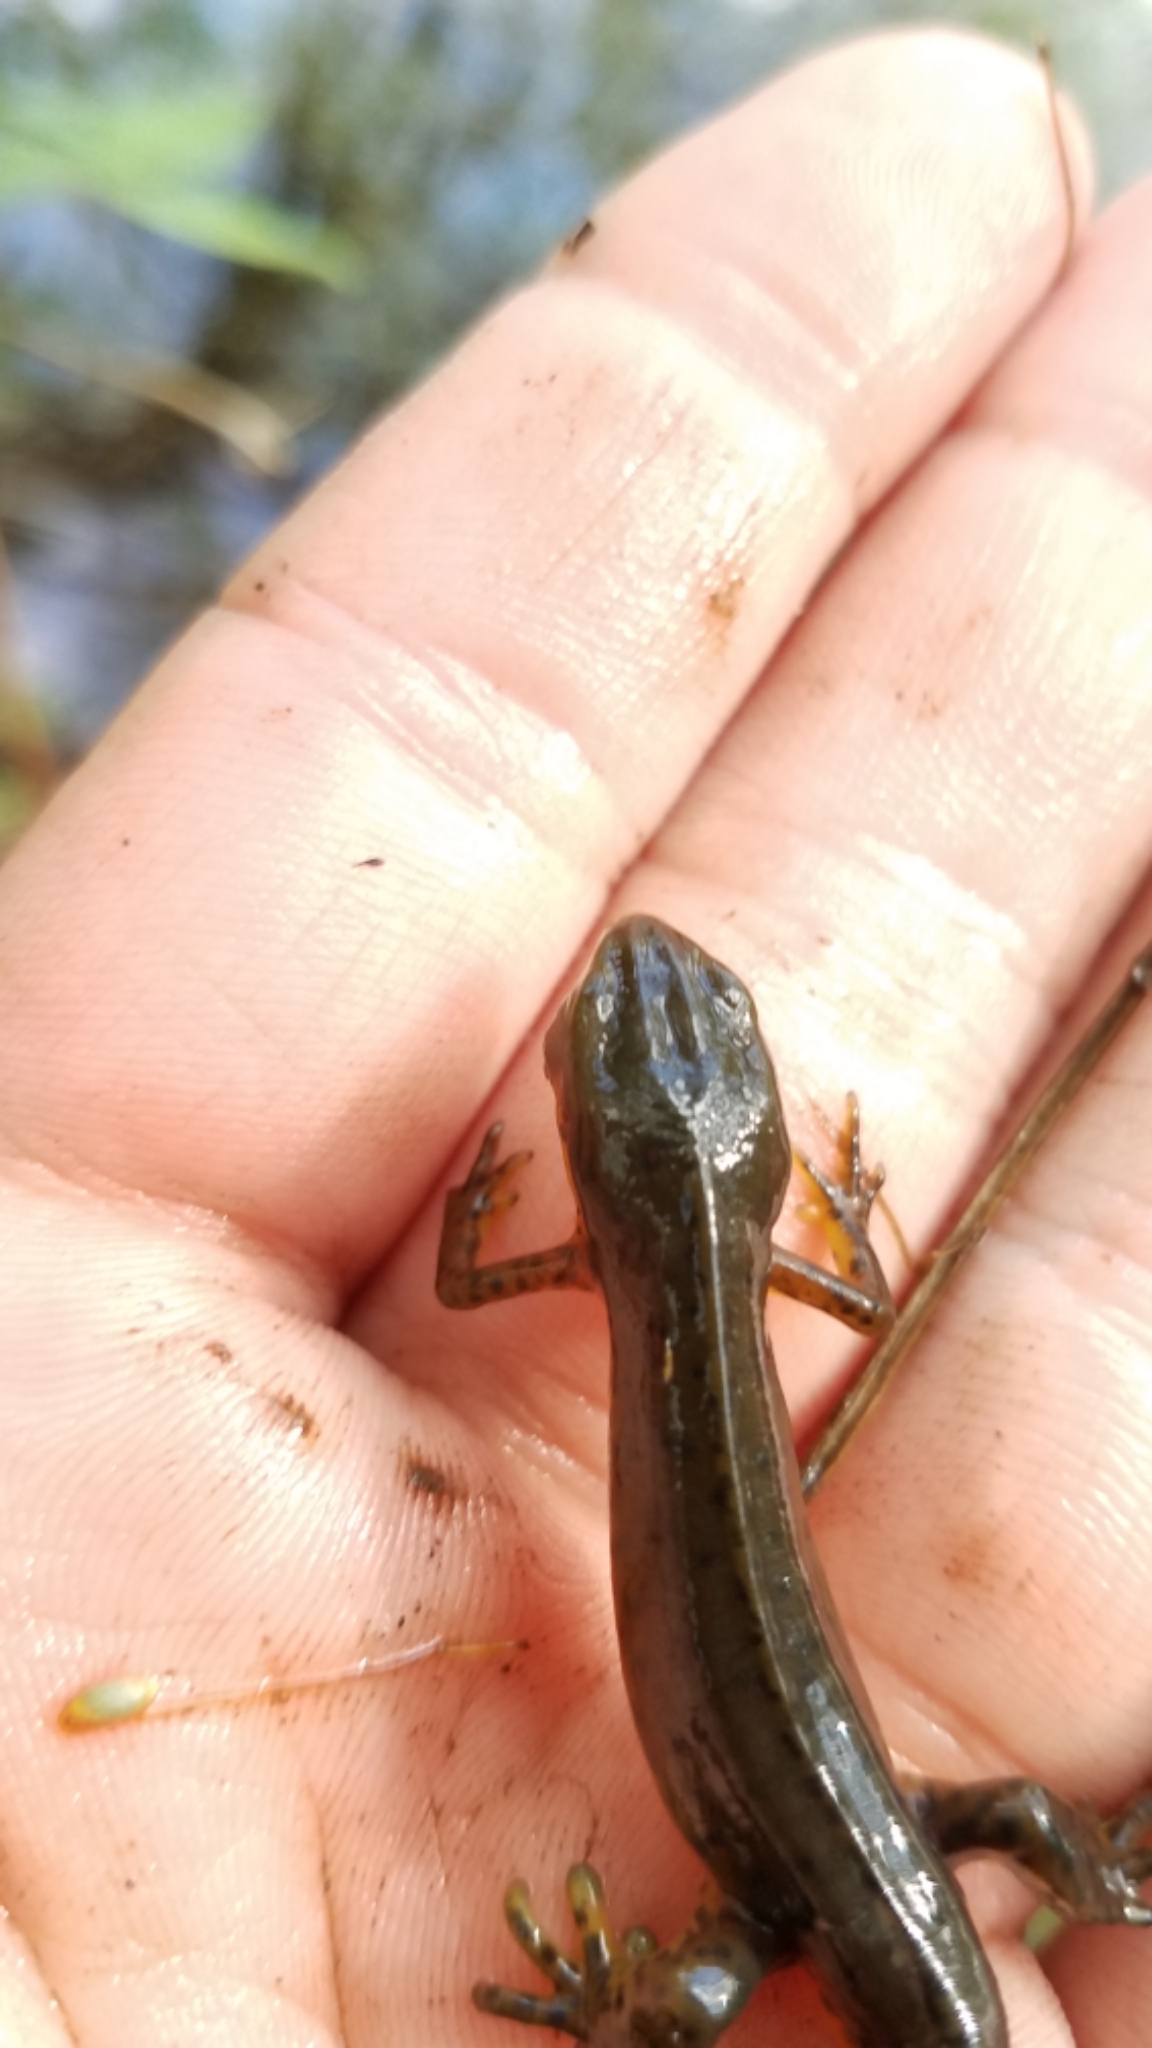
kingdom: Animalia
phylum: Chordata
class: Amphibia
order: Caudata
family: Salamandridae
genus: Notophthalmus
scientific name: Notophthalmus viridescens
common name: Eastern newt
